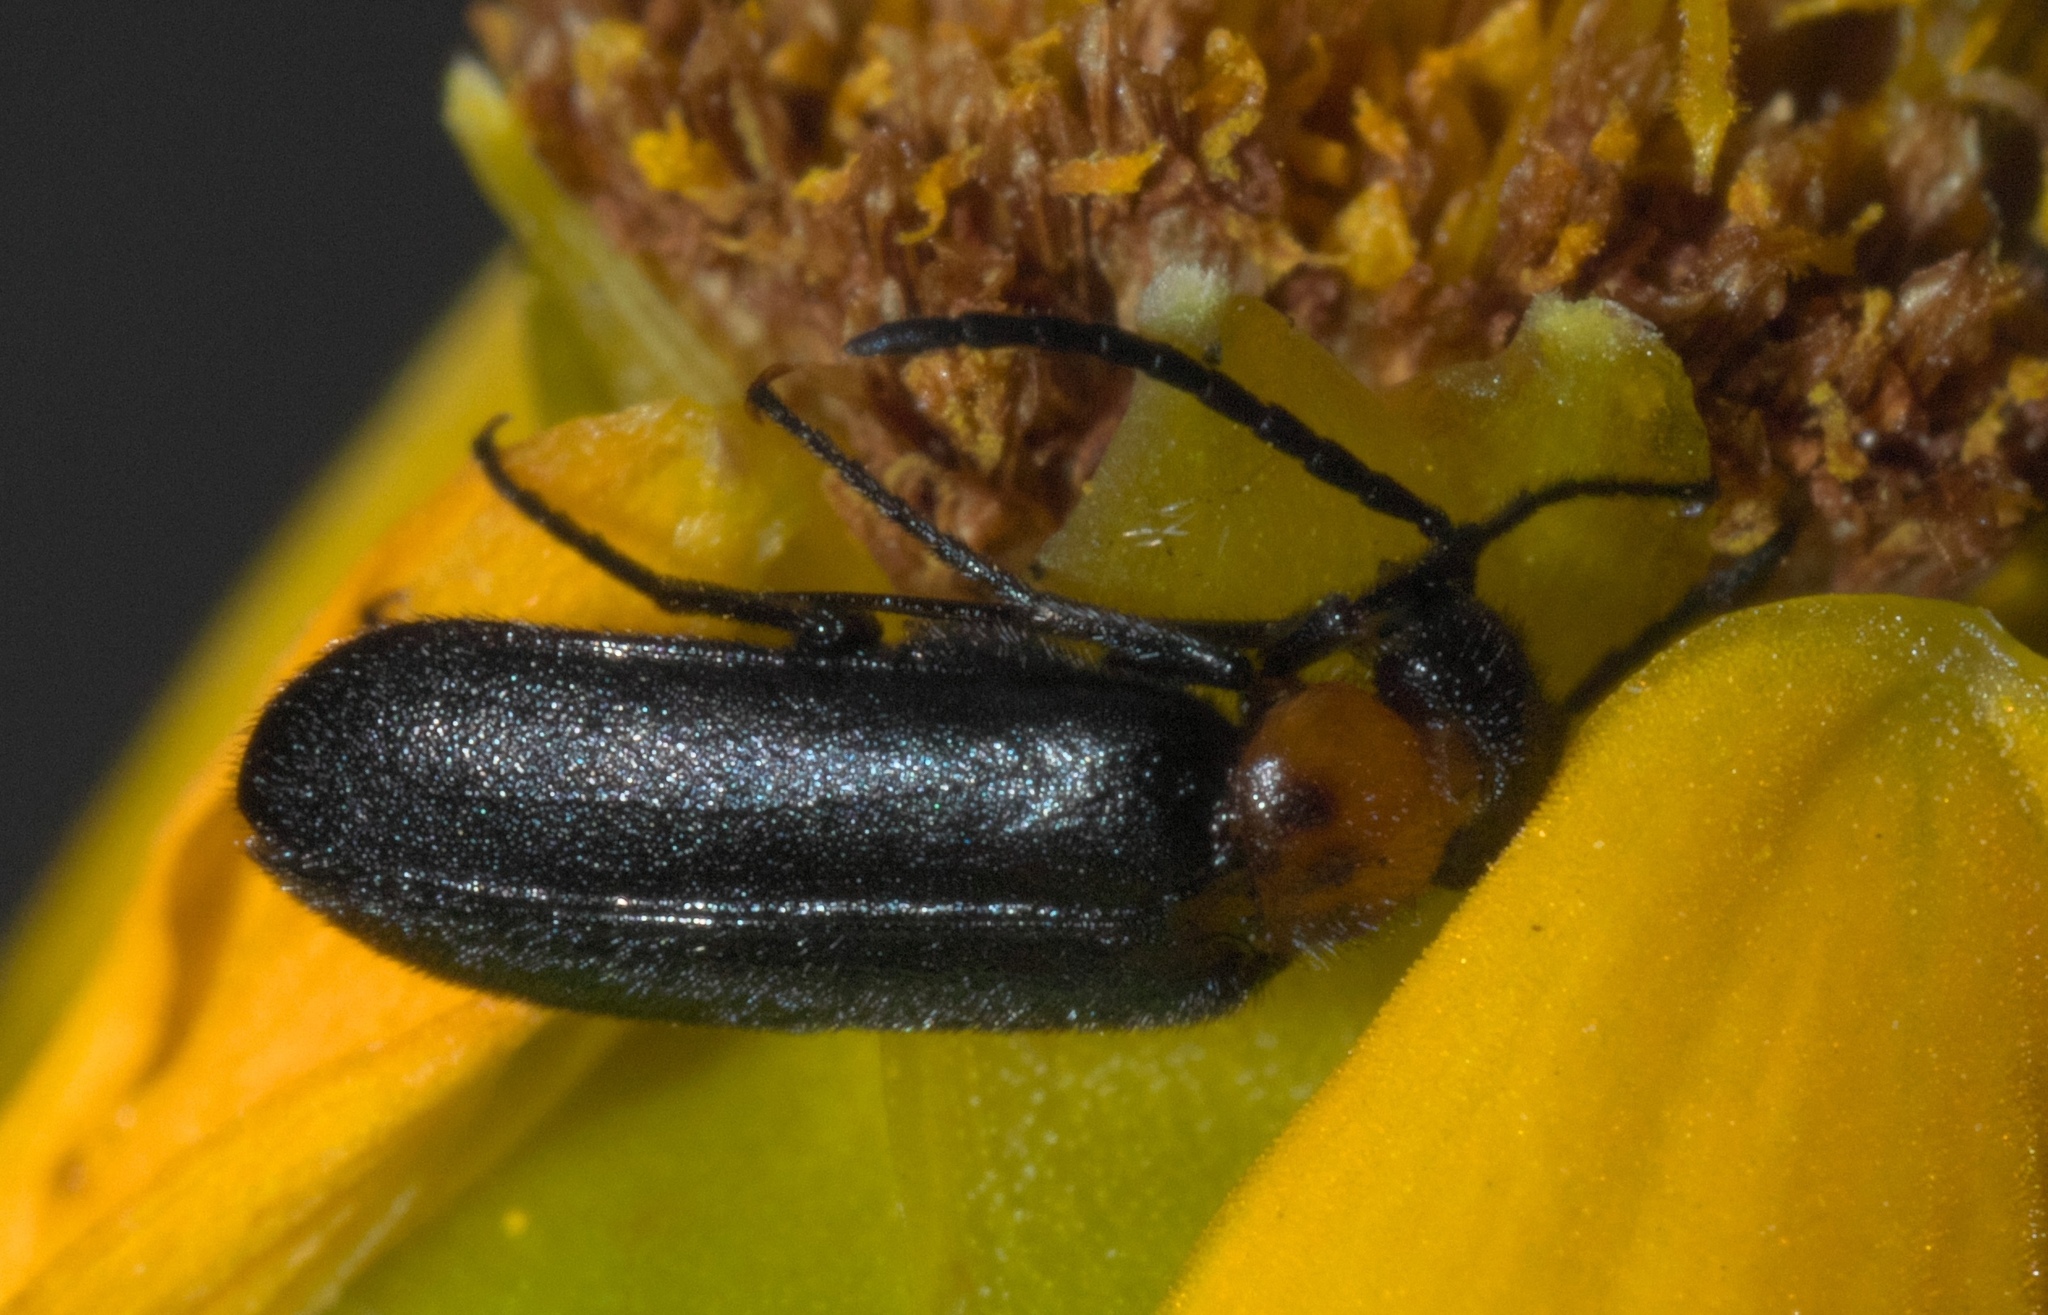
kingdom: Animalia
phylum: Arthropoda
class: Insecta
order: Coleoptera
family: Meloidae
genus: Nemognatha
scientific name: Nemognatha nemorensis
